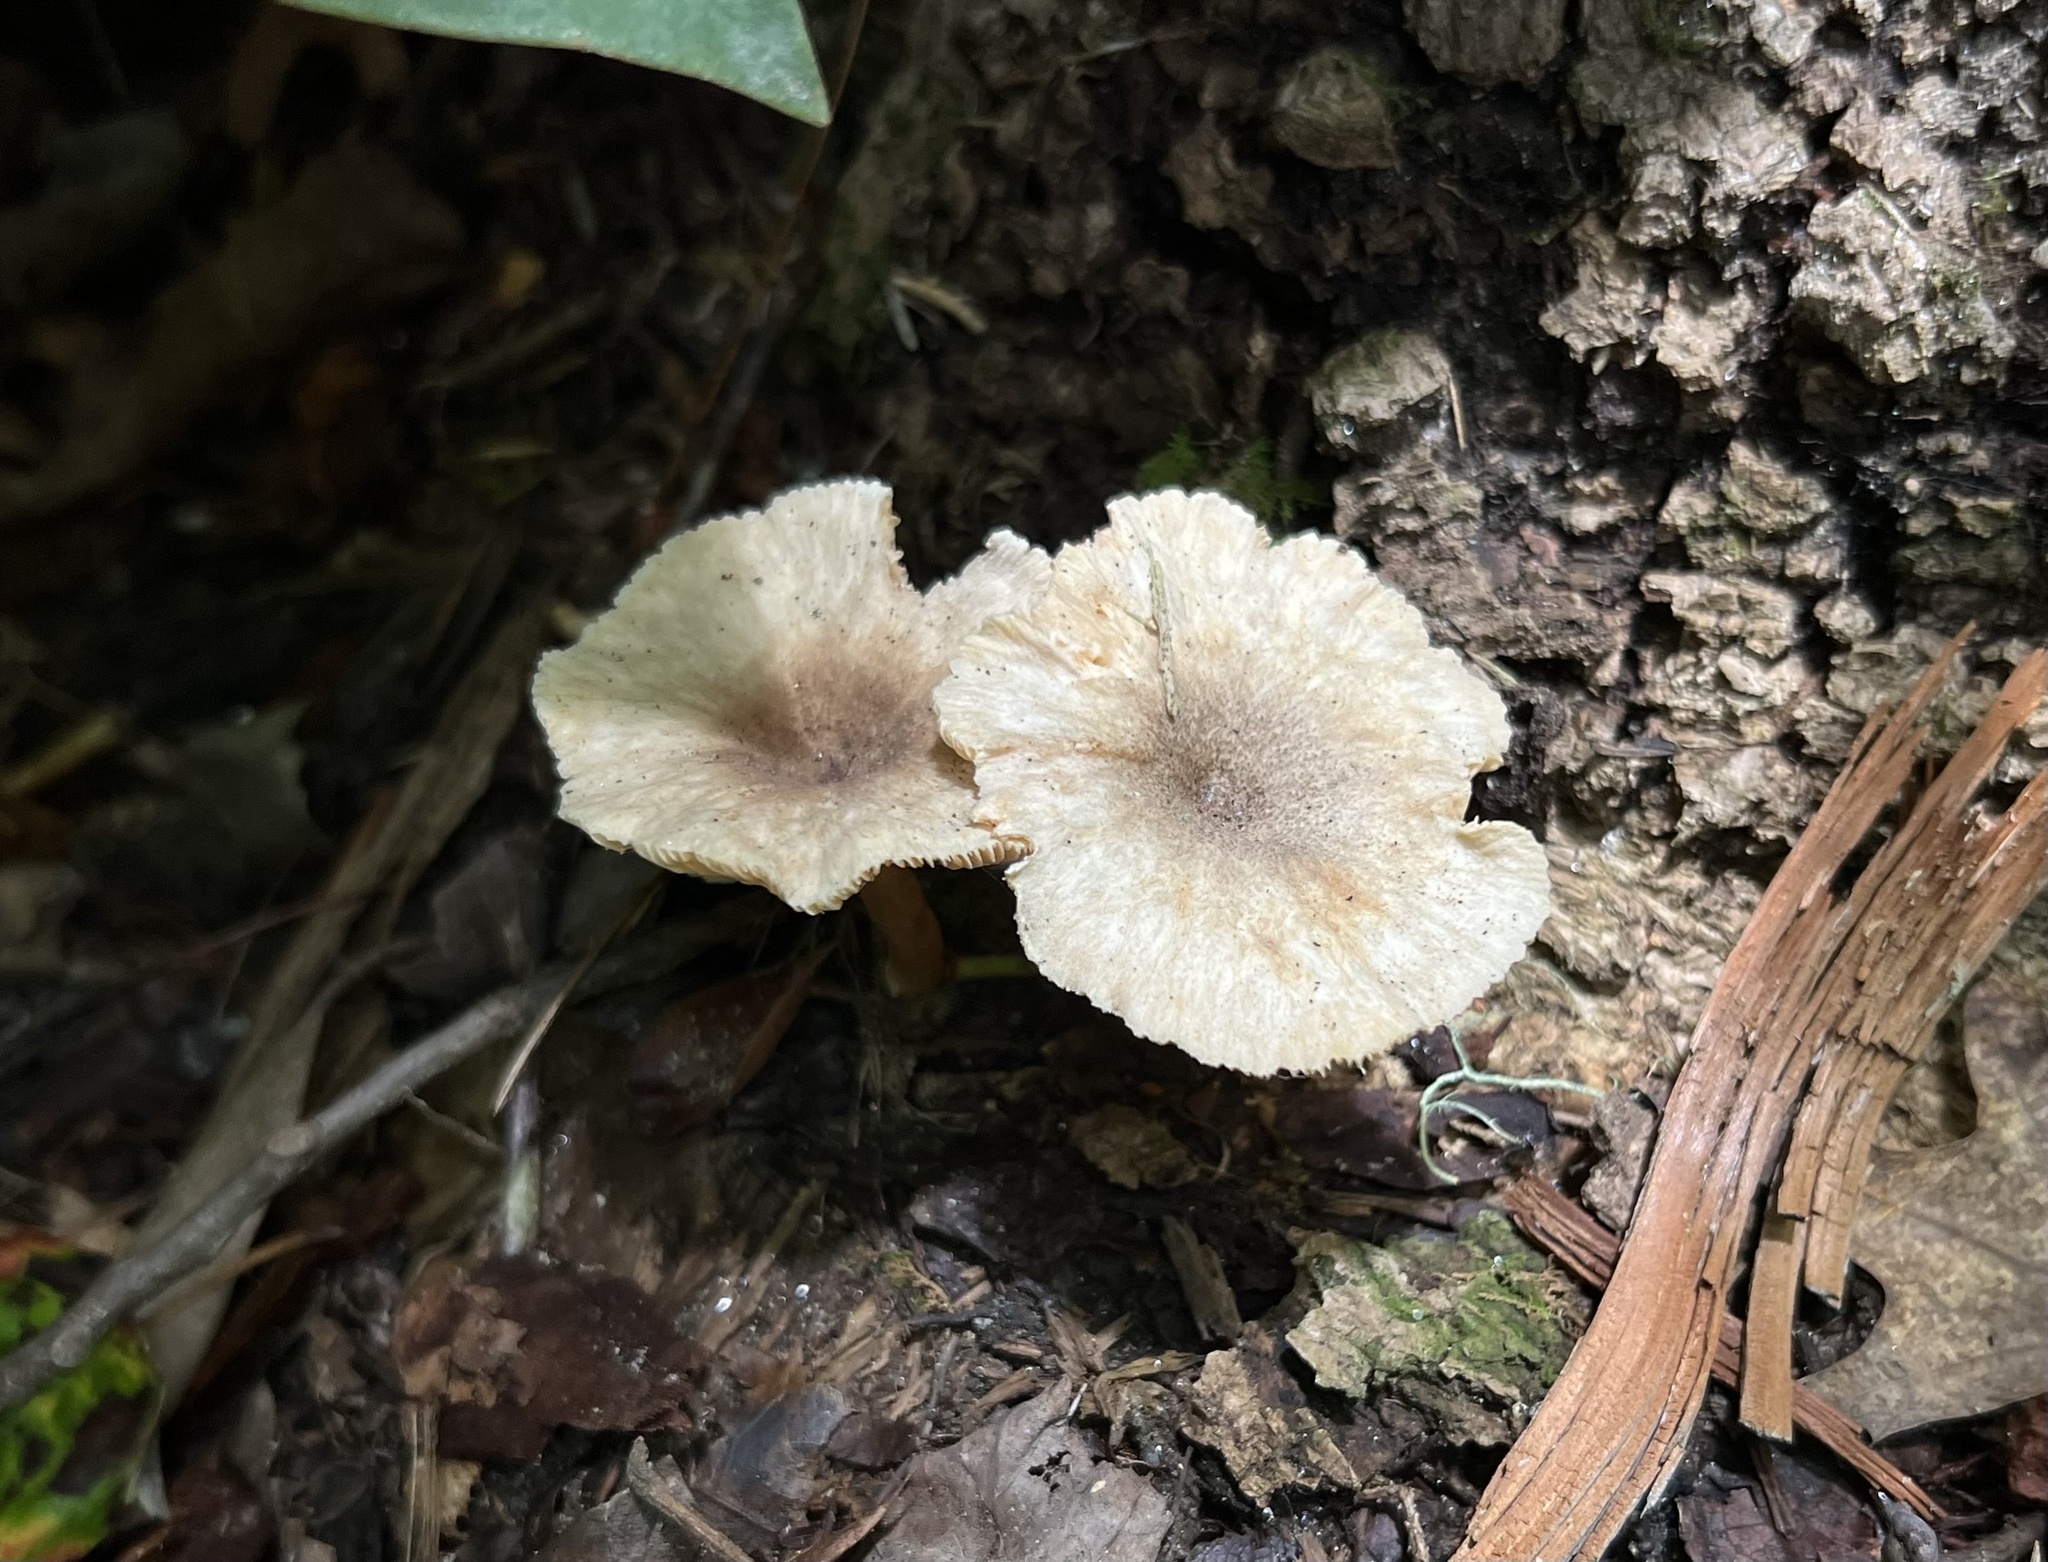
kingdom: Fungi
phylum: Basidiomycota
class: Agaricomycetes
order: Russulales
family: Russulaceae
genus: Lactarius
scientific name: Lactarius griseus
